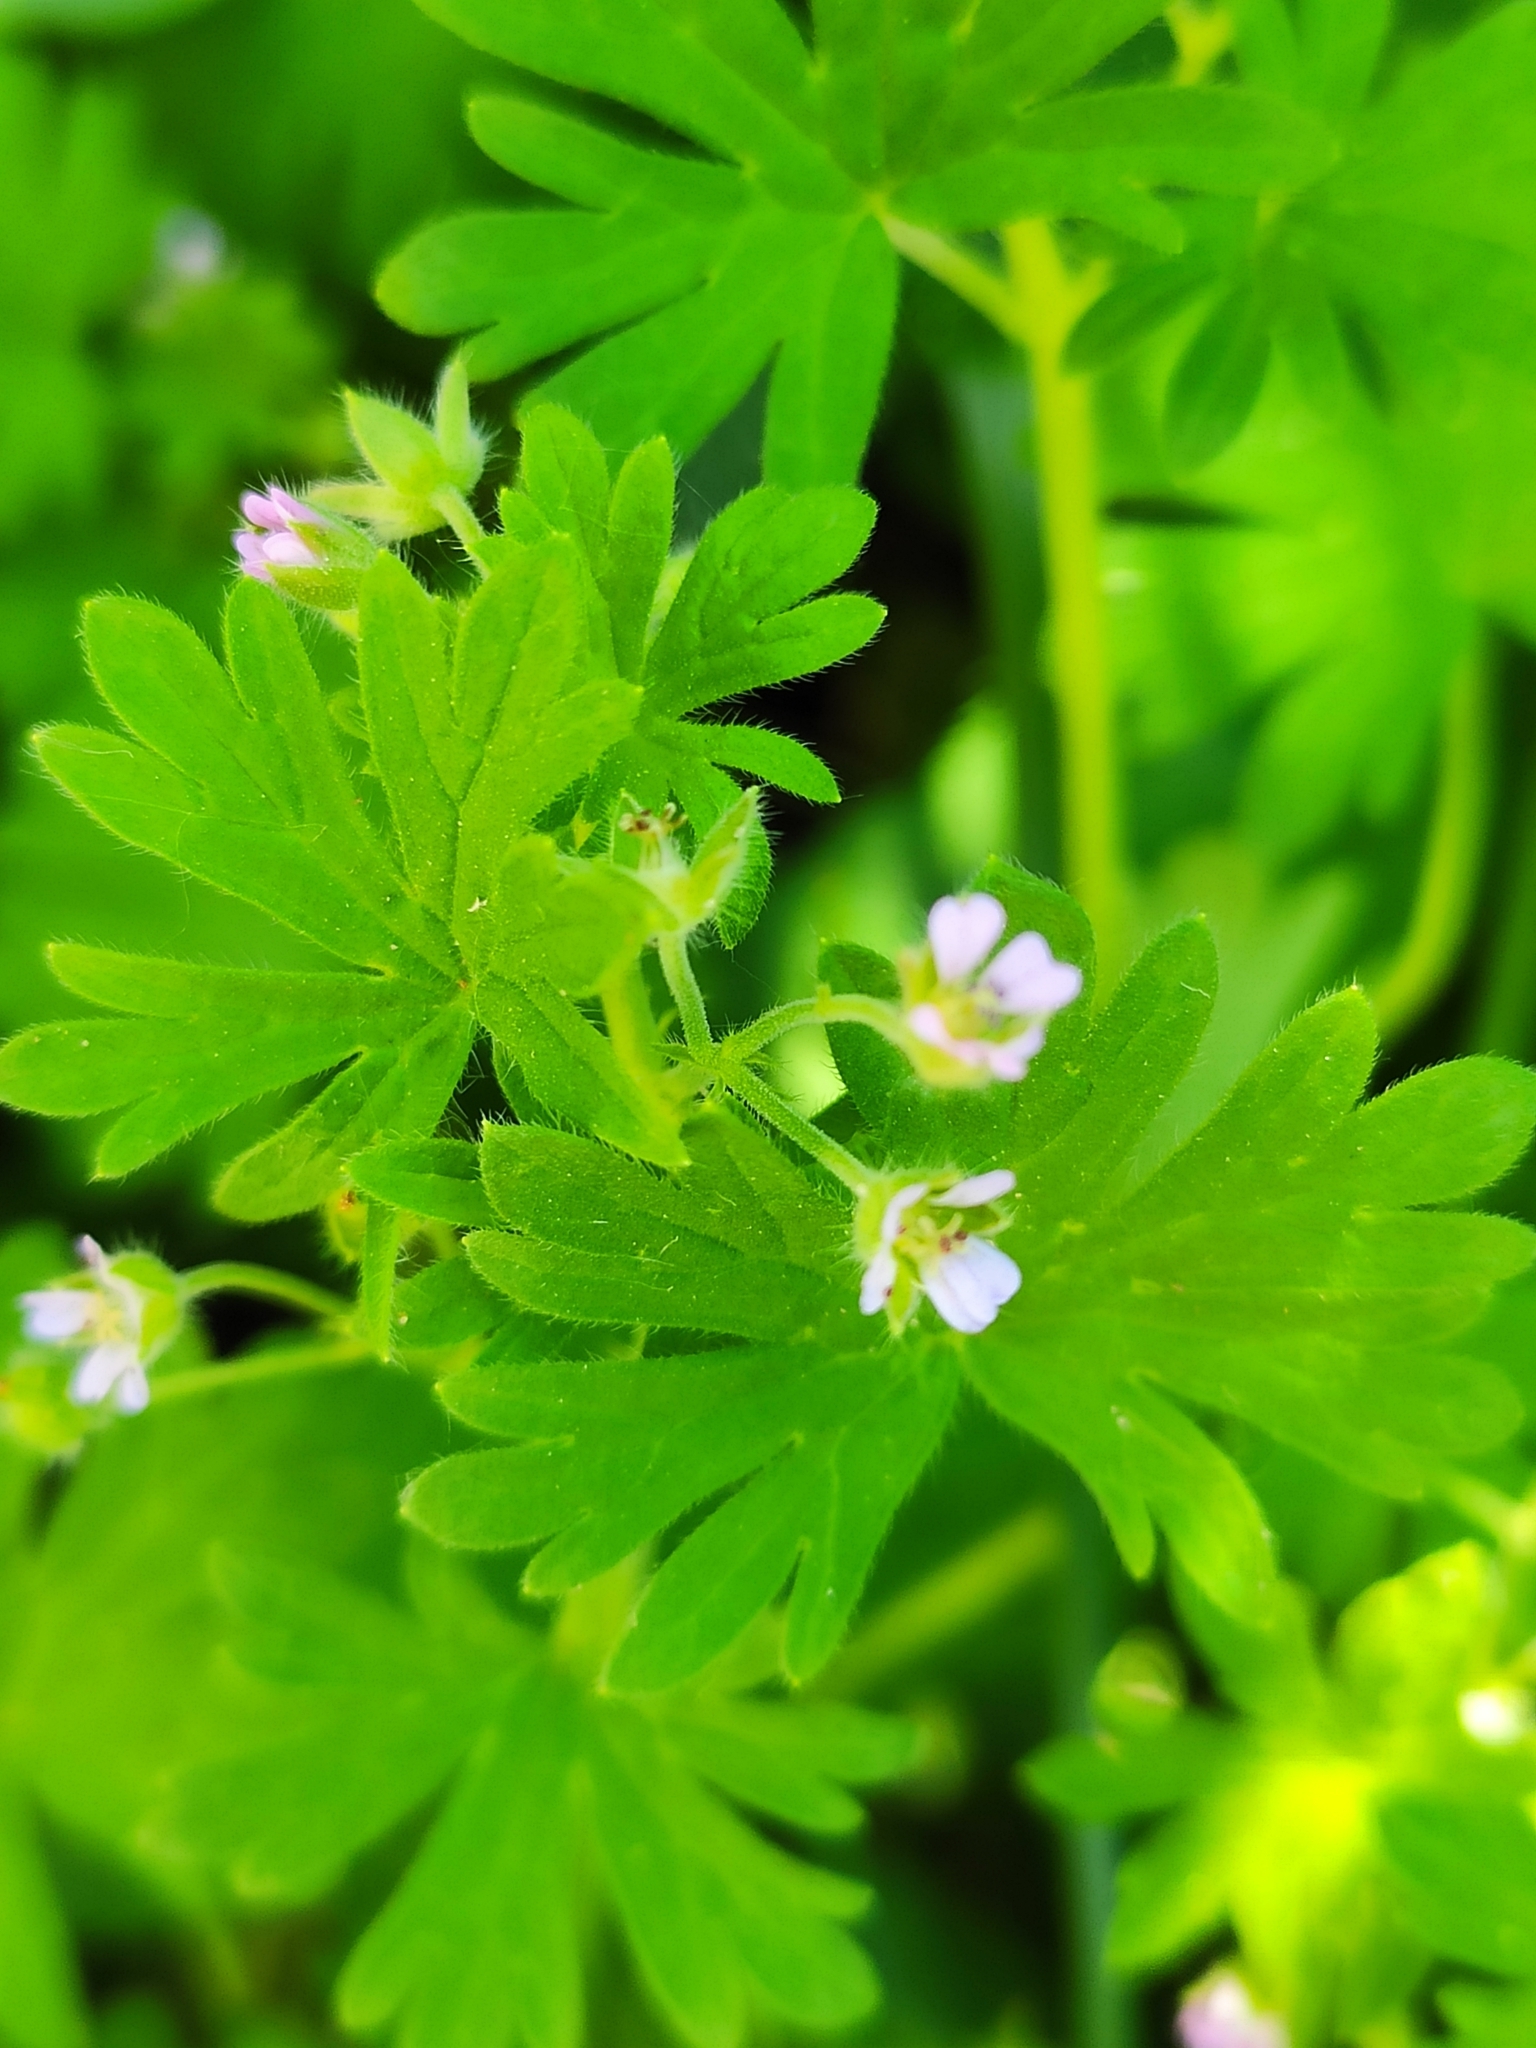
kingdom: Plantae
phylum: Tracheophyta
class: Magnoliopsida
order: Geraniales
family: Geraniaceae
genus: Geranium
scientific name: Geranium pusillum
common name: Small geranium
